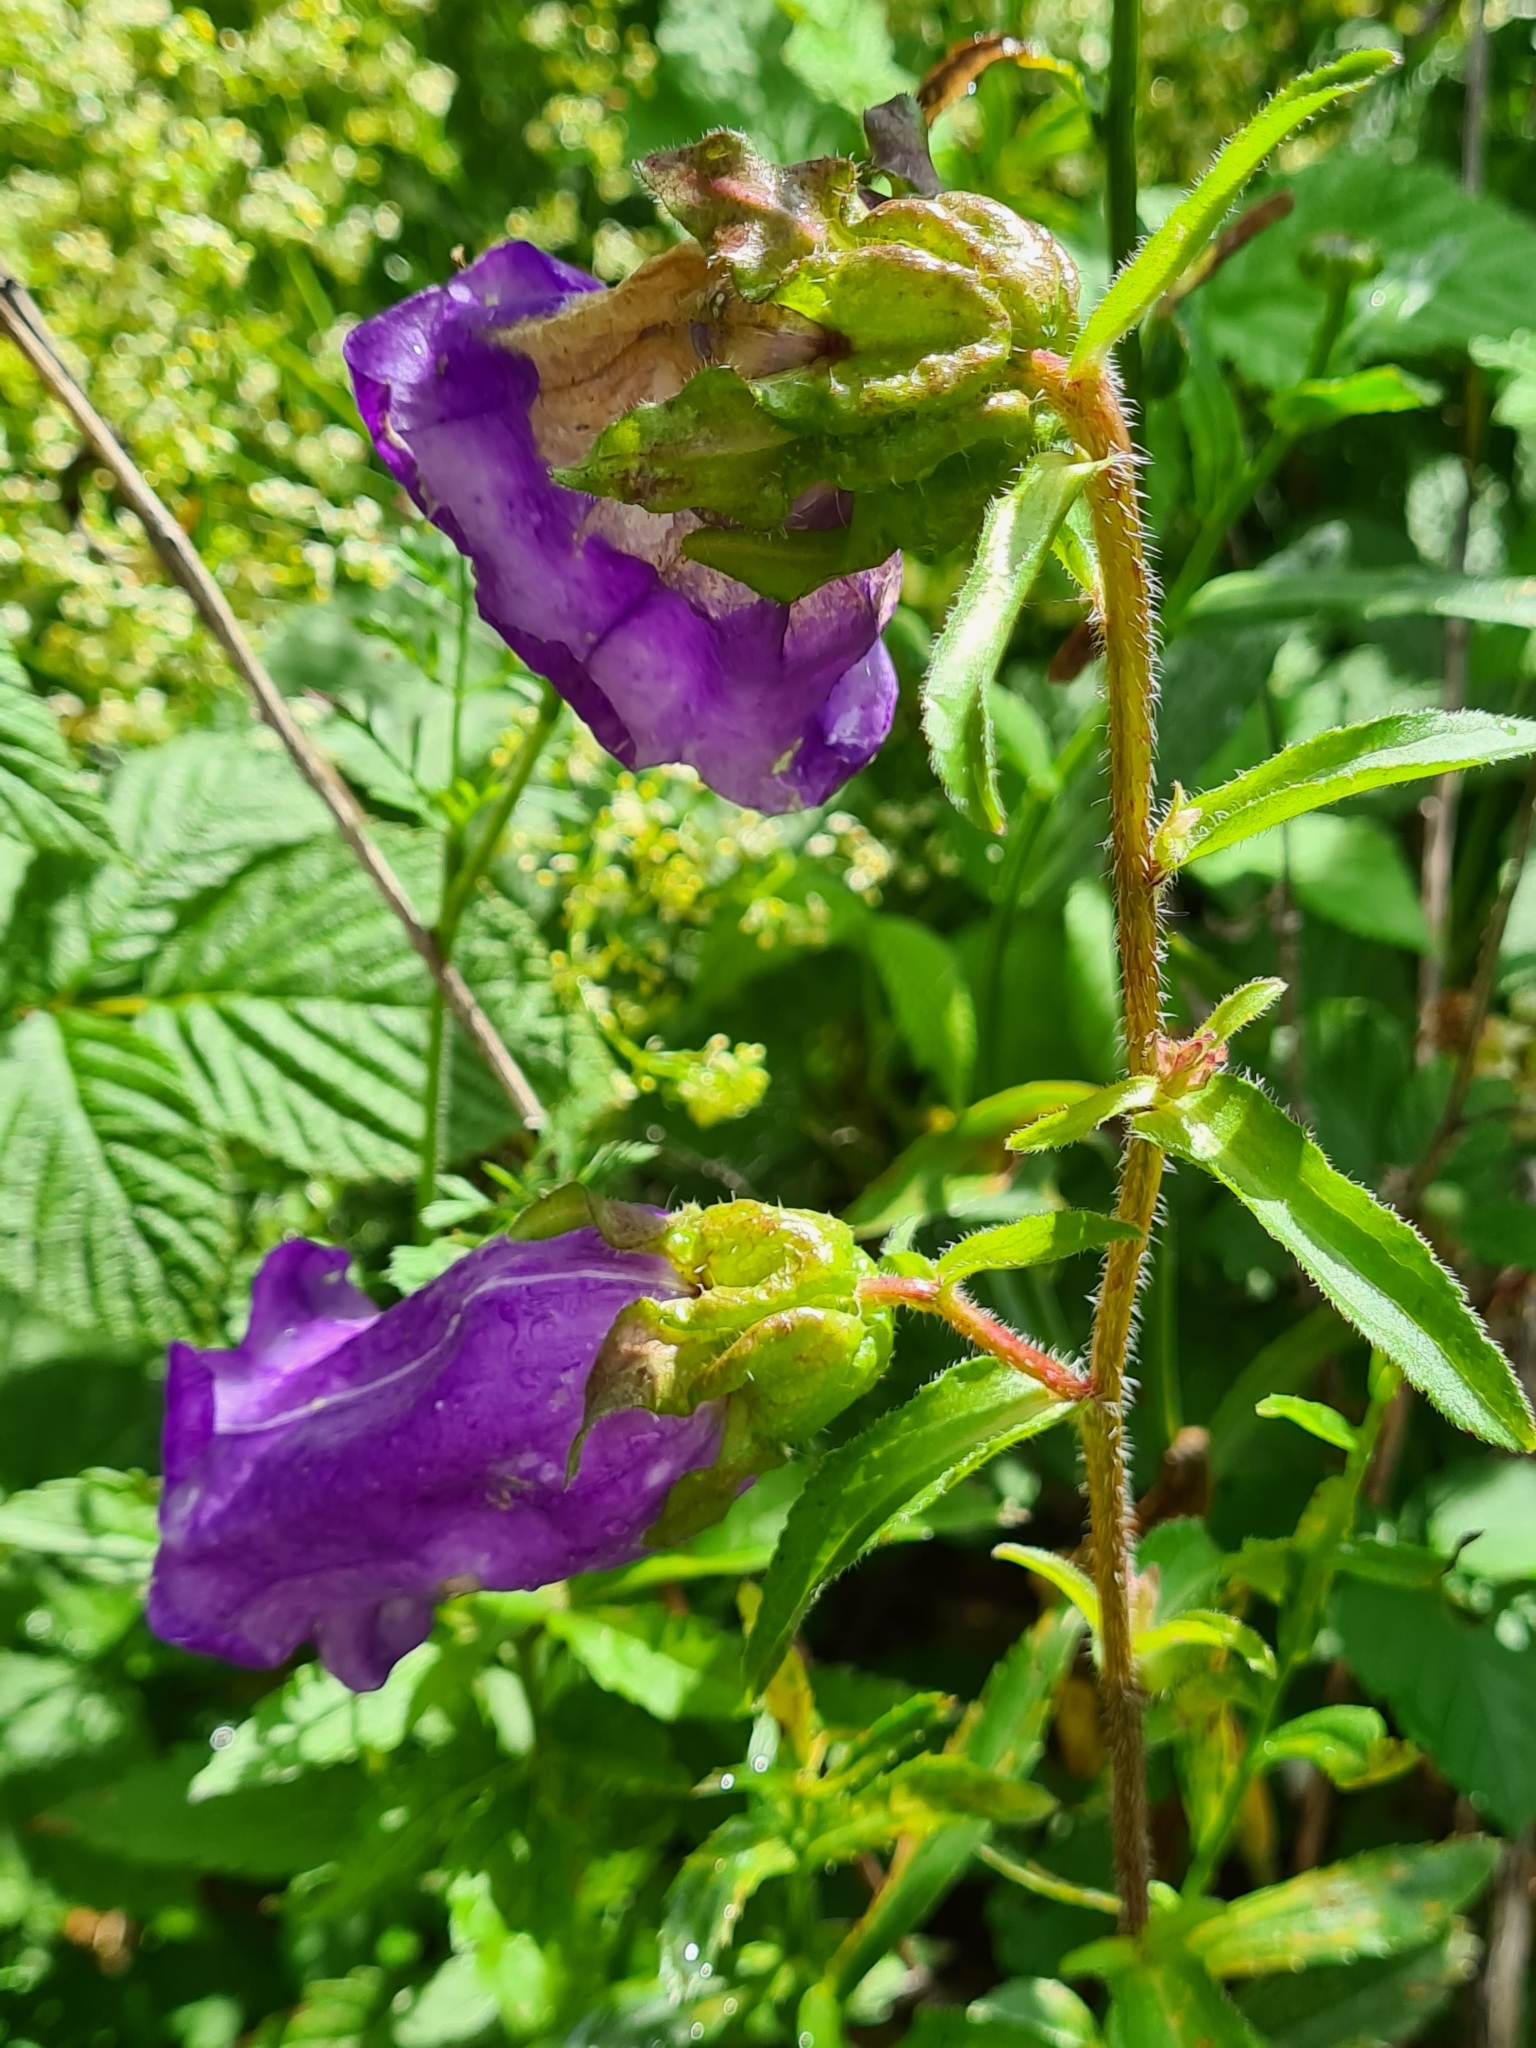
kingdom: Plantae
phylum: Tracheophyta
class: Magnoliopsida
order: Asterales
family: Campanulaceae
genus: Campanula
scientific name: Campanula medium
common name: Canterbury bells
